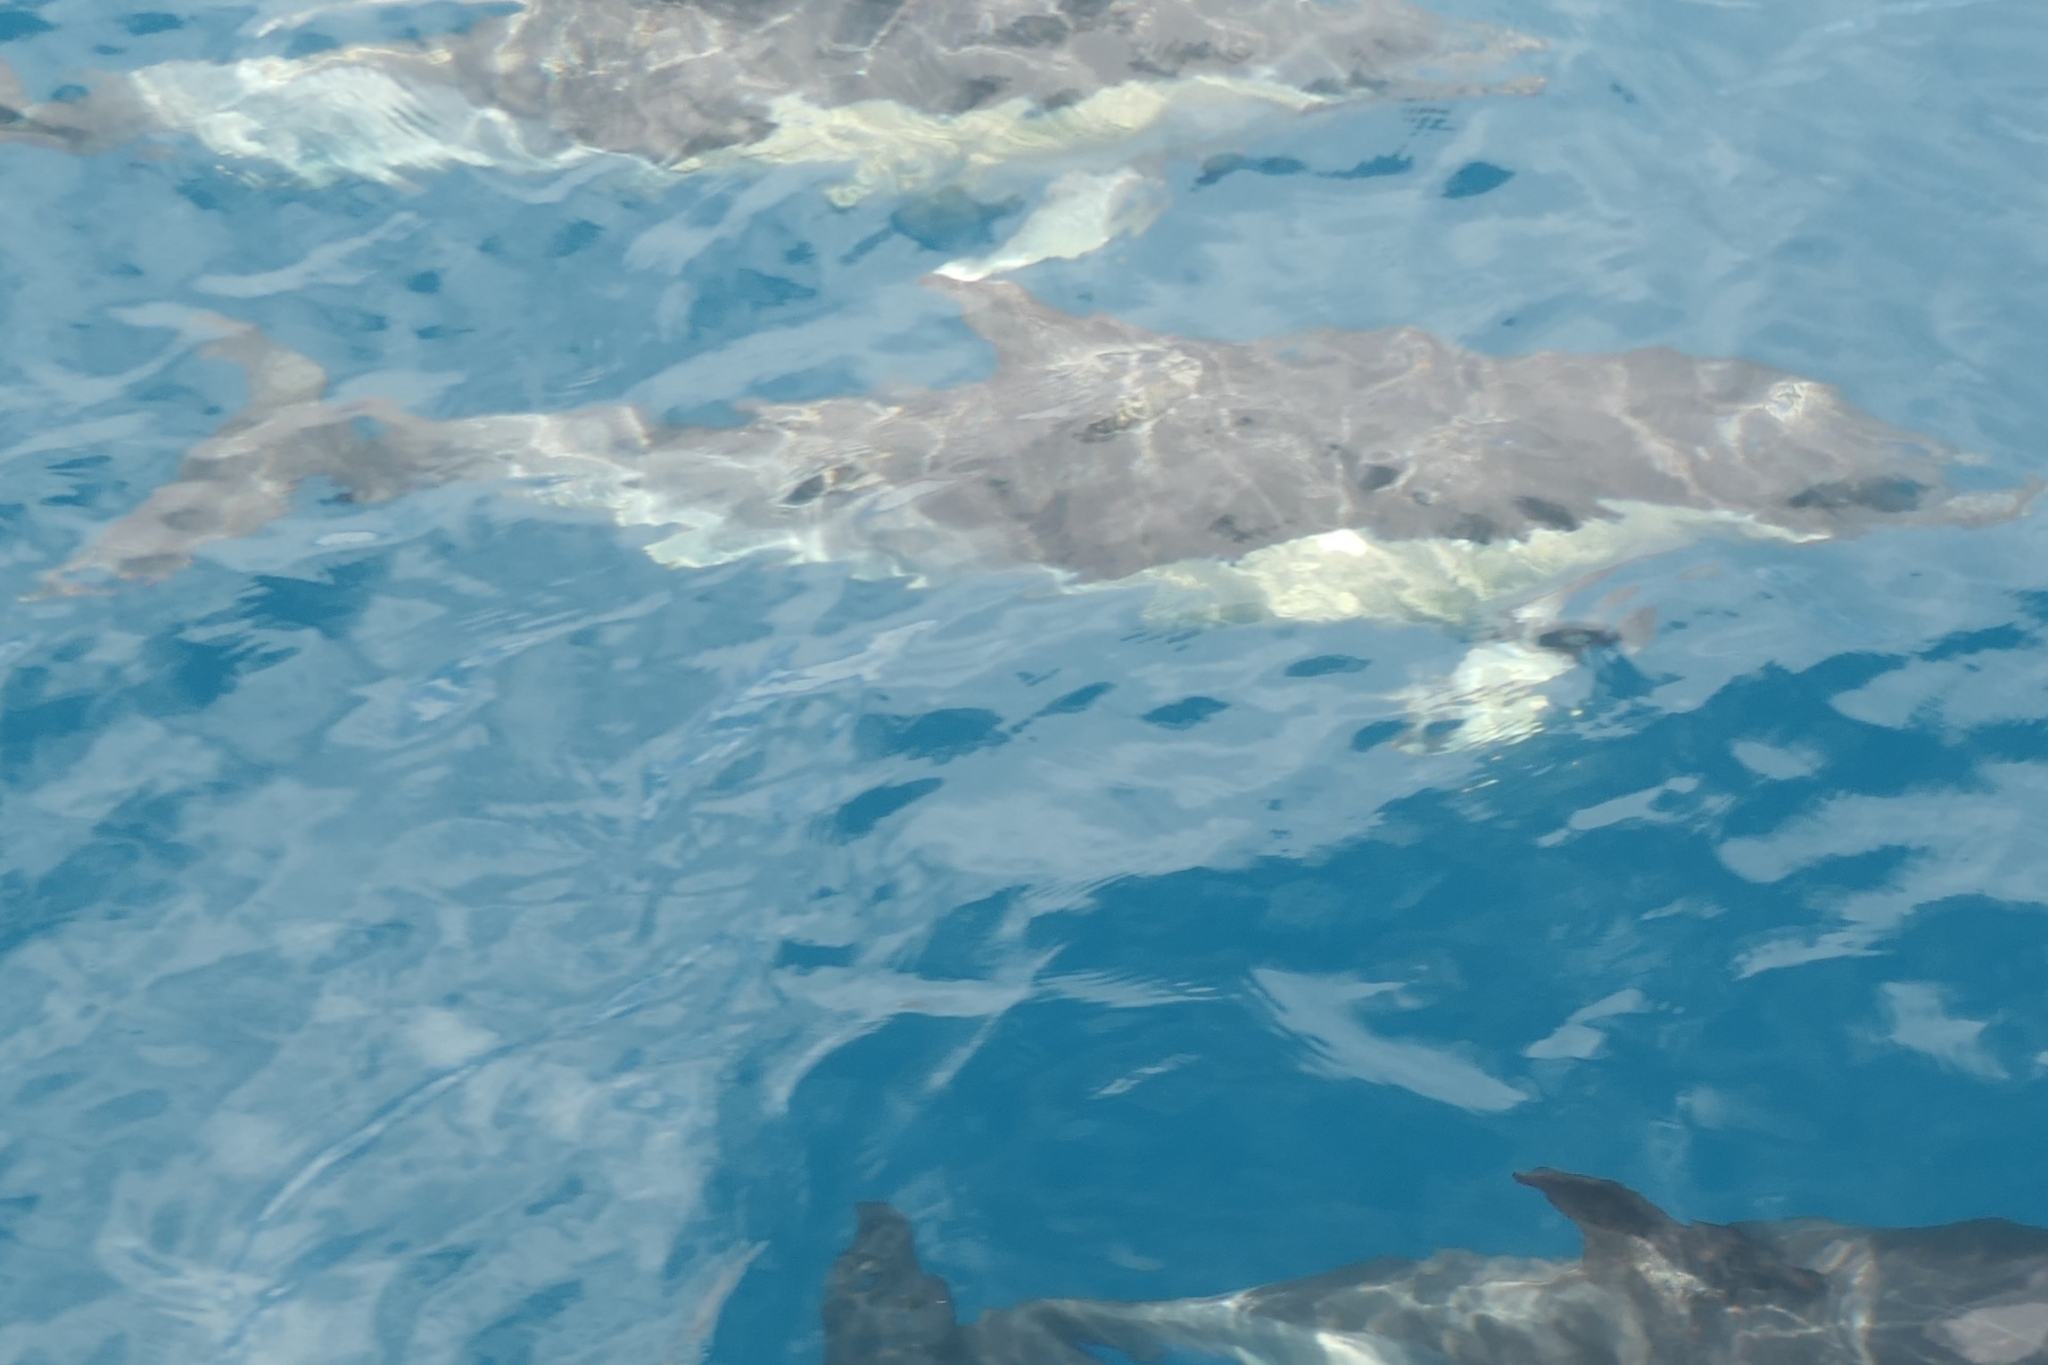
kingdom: Animalia
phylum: Chordata
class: Mammalia
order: Cetacea
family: Delphinidae
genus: Delphinus
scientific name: Delphinus delphis
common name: Common dolphin
